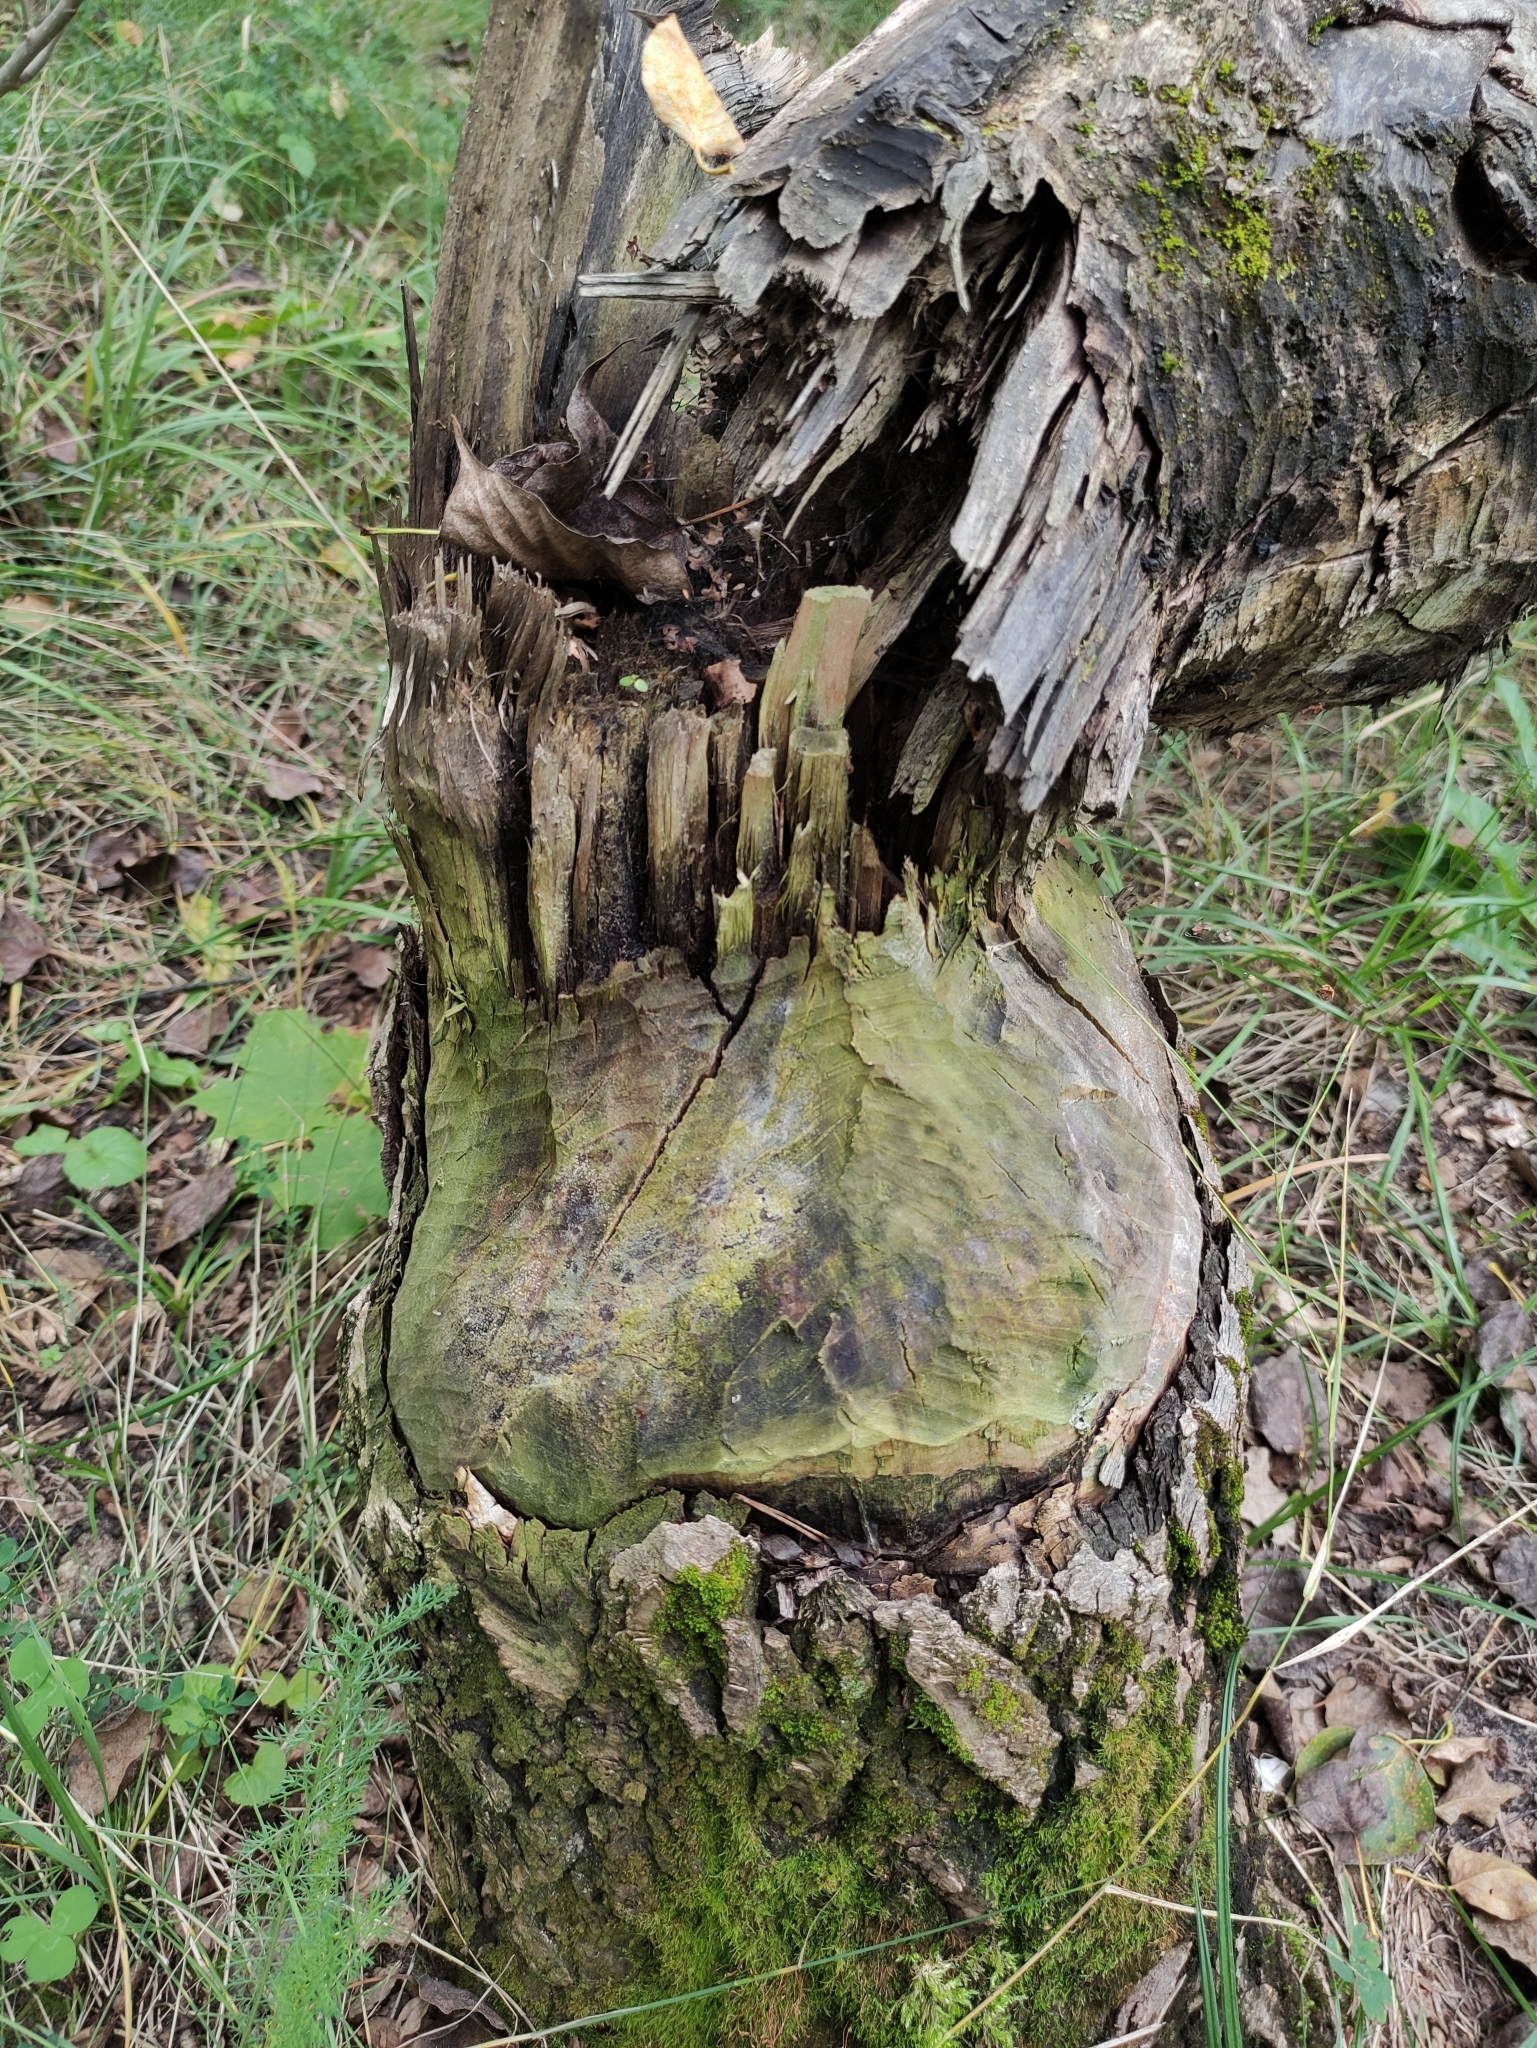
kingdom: Animalia
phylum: Chordata
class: Mammalia
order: Rodentia
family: Castoridae
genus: Castor
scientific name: Castor fiber
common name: Eurasian beaver
